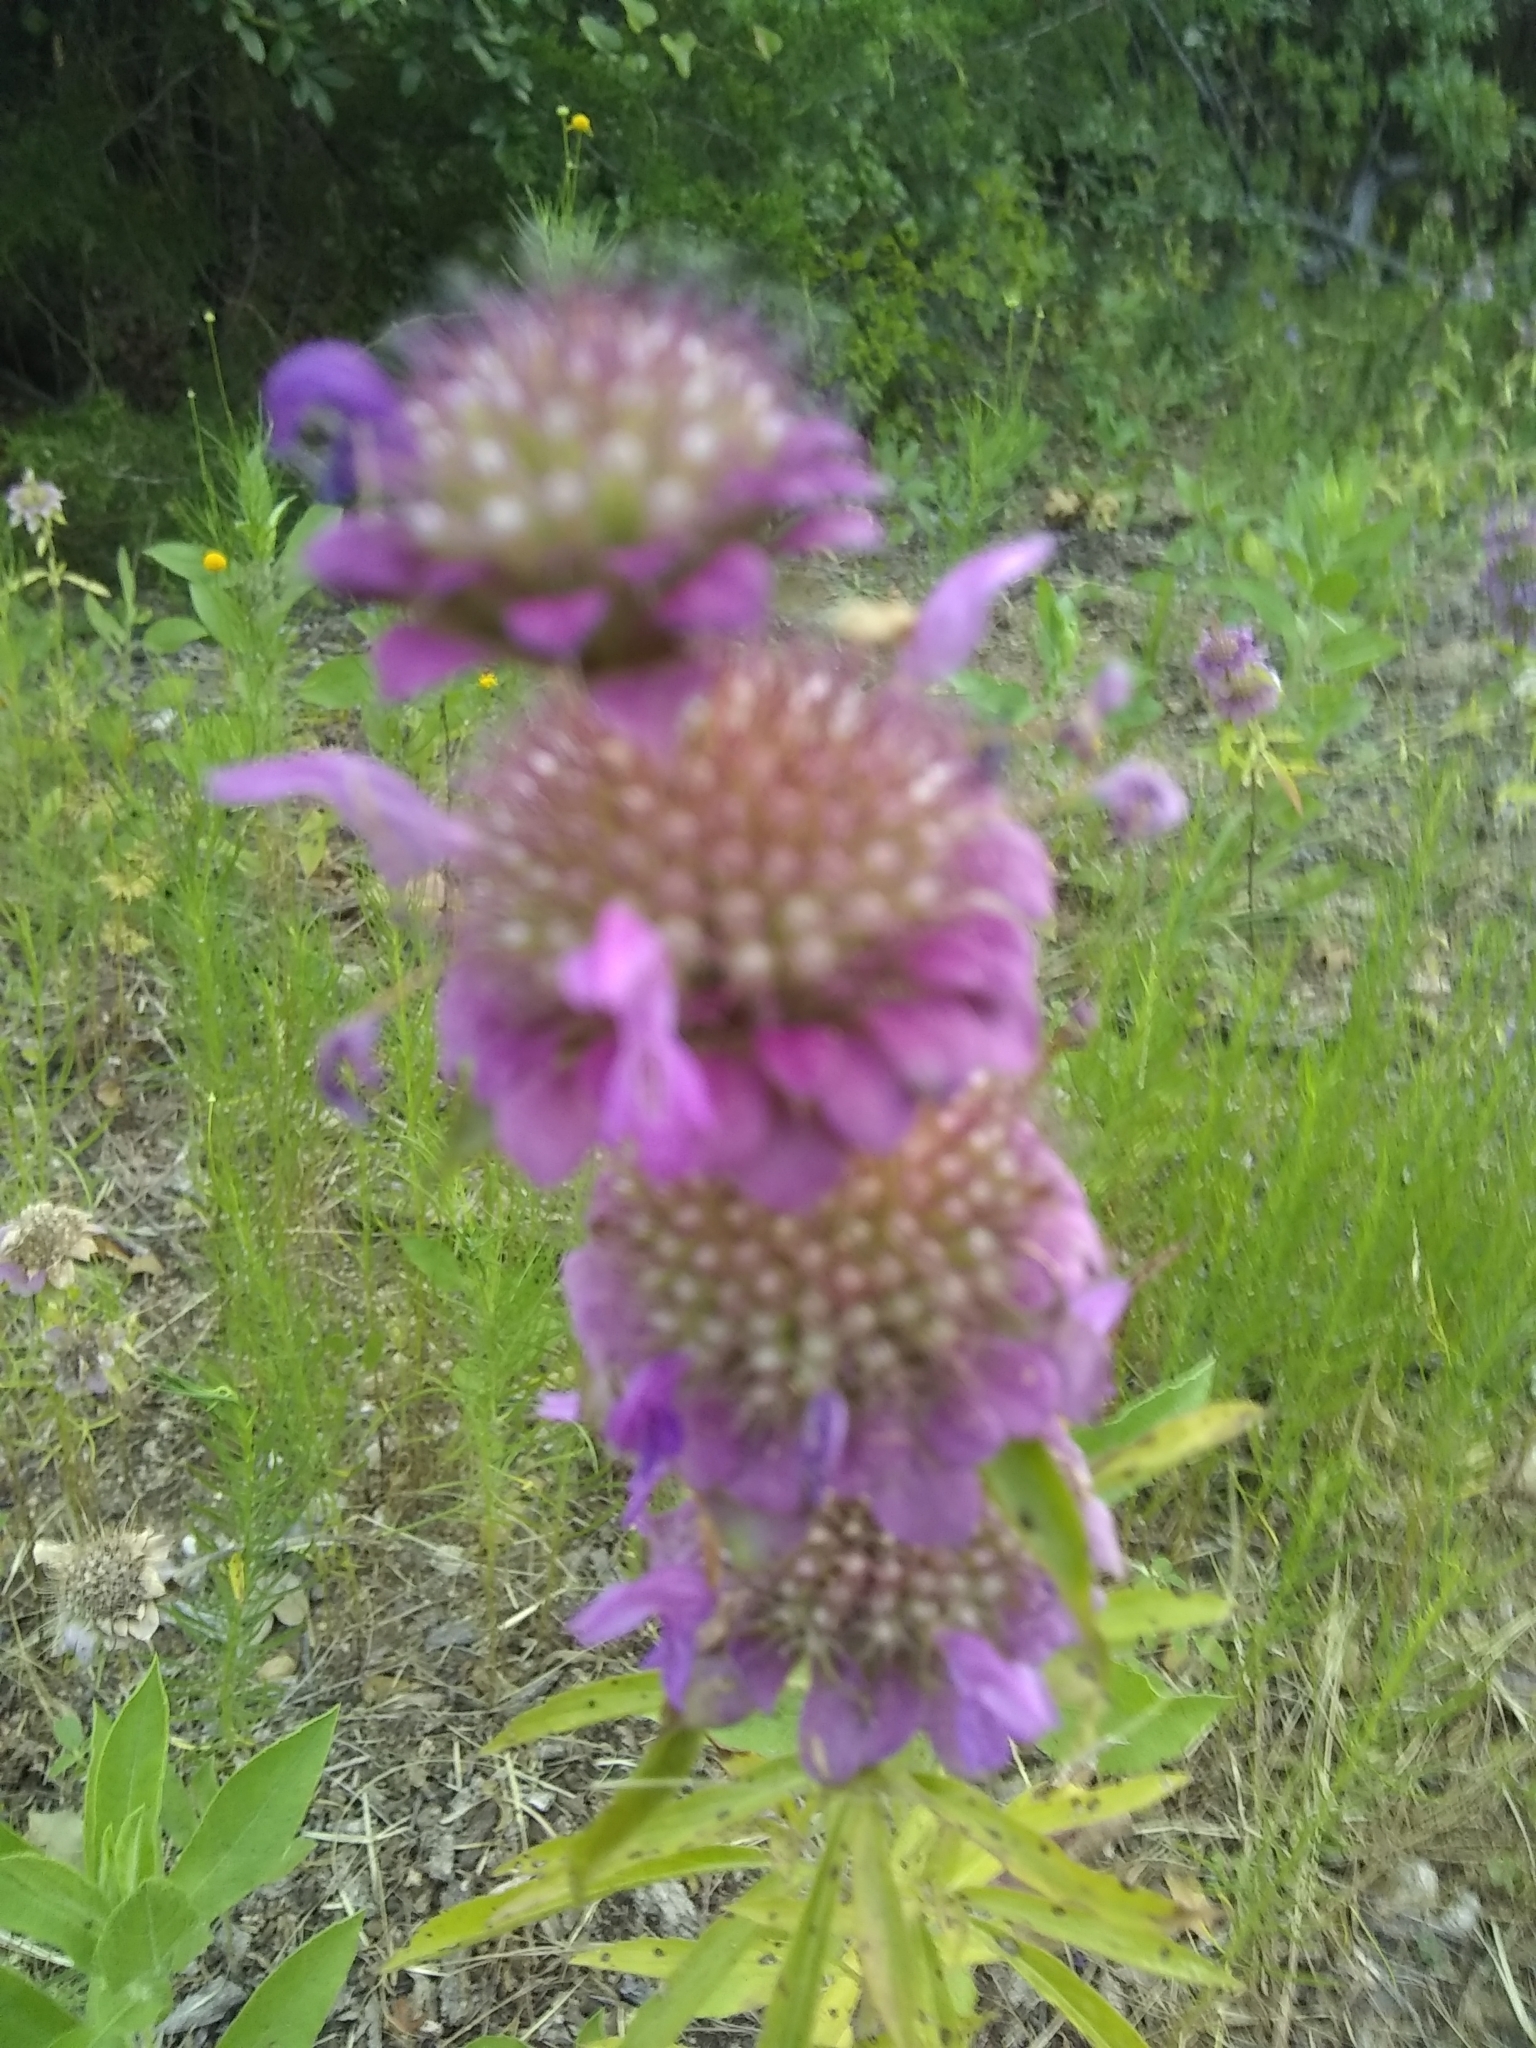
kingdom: Plantae
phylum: Tracheophyta
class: Magnoliopsida
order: Lamiales
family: Lamiaceae
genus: Monarda
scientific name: Monarda citriodora
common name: Lemon beebalm
